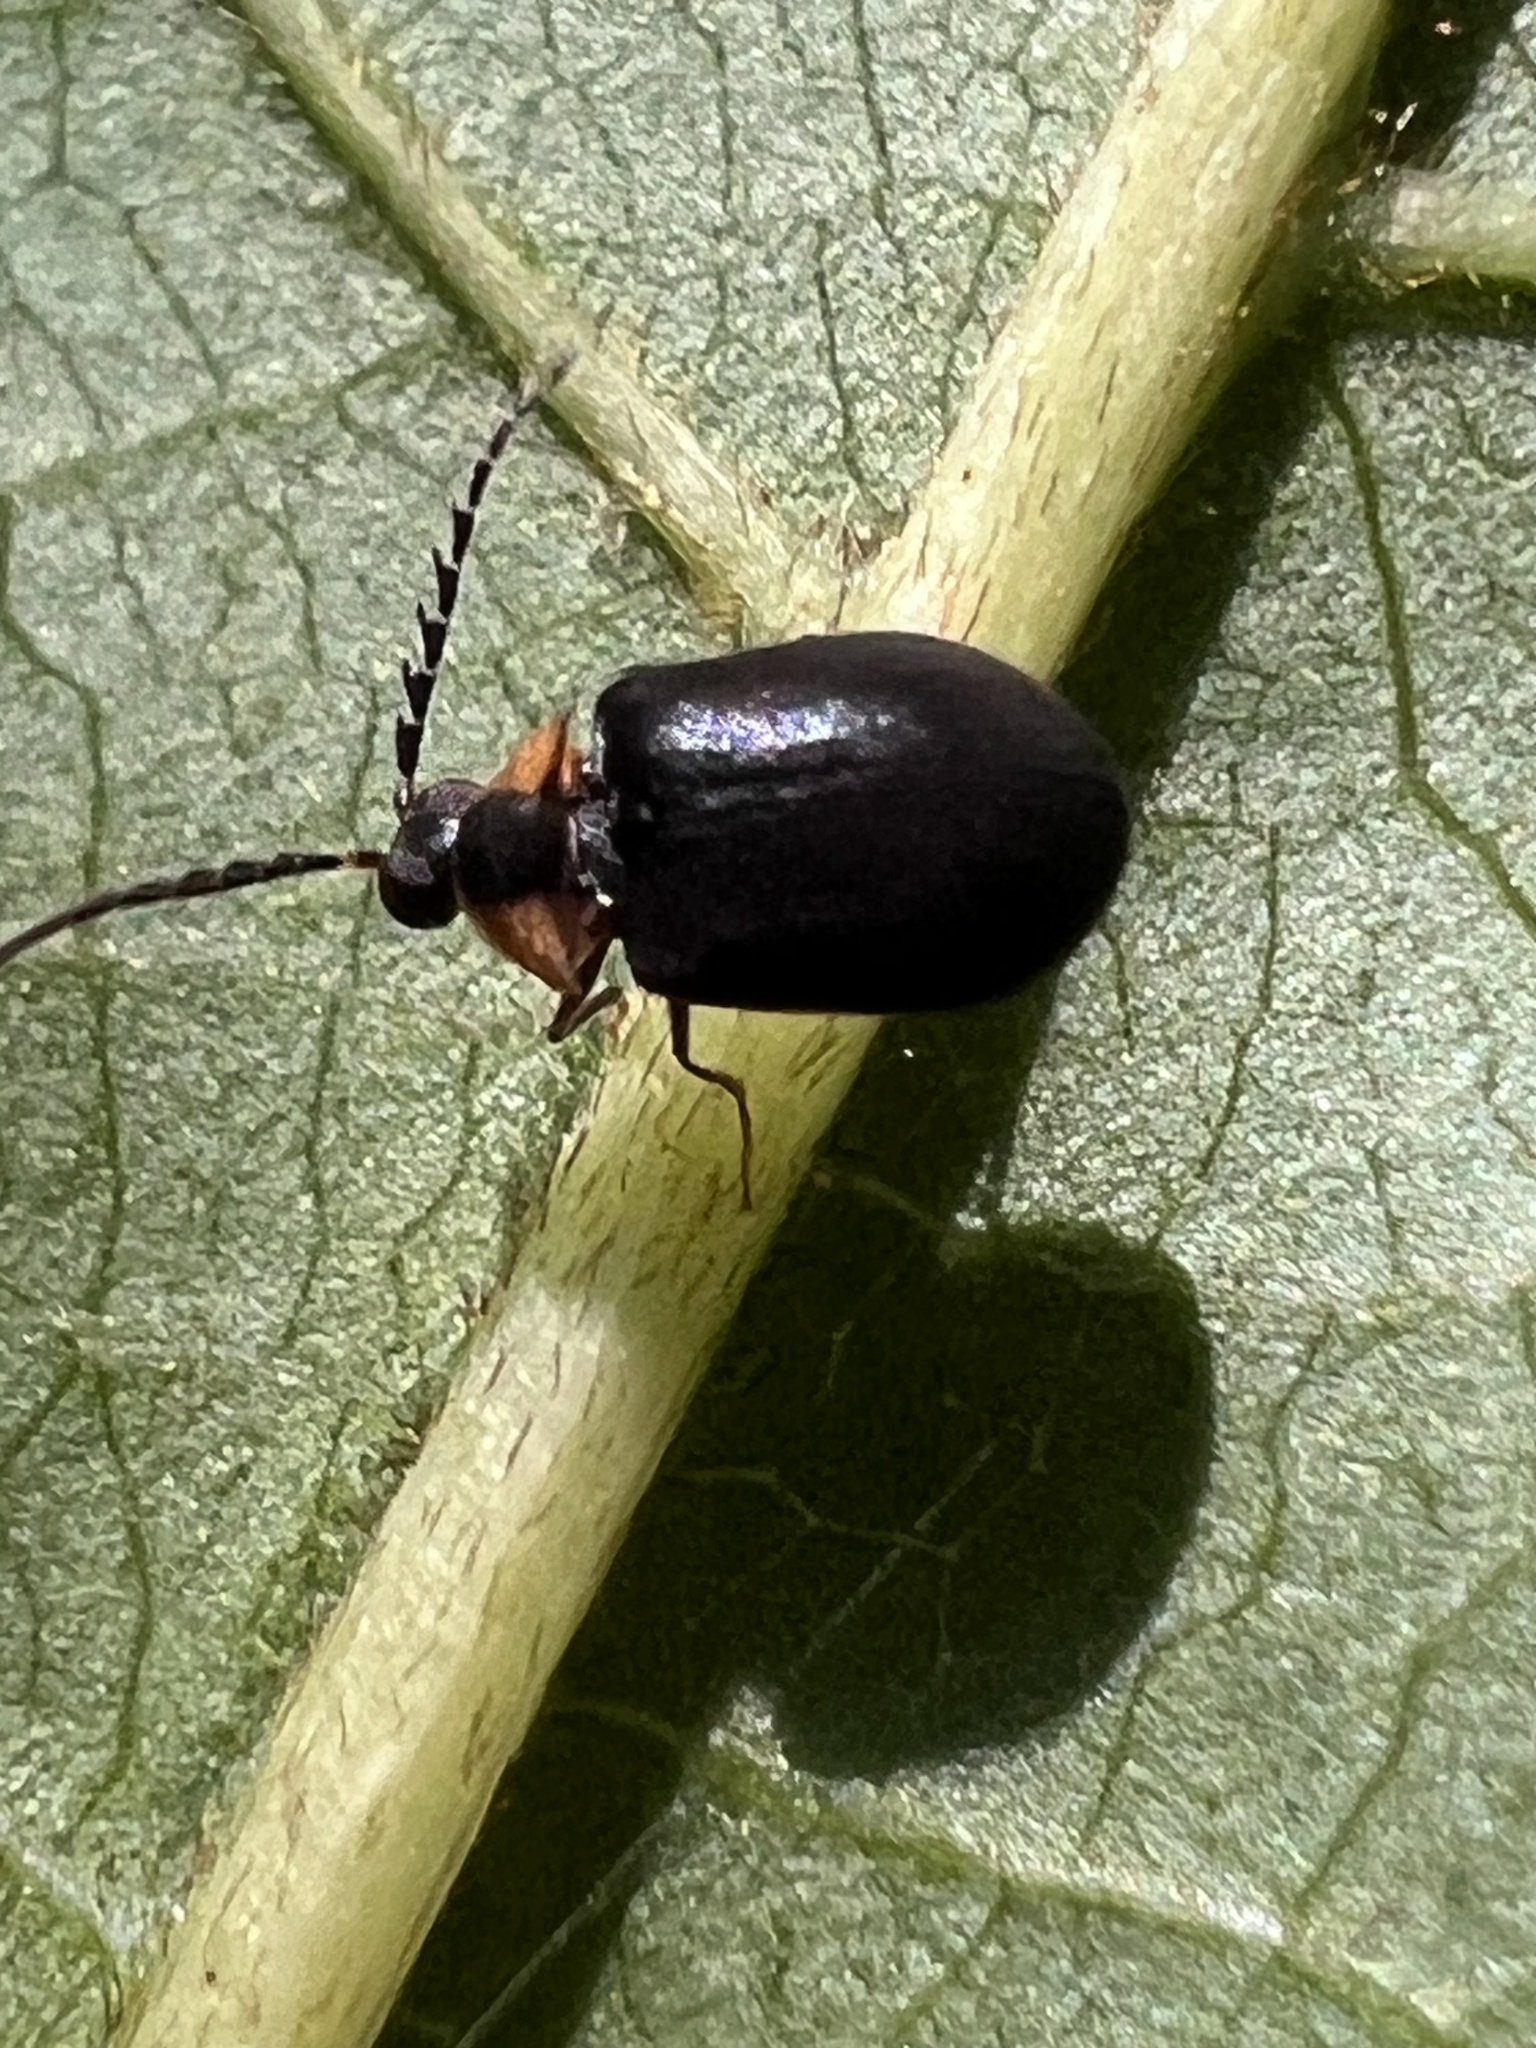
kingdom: Animalia
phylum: Arthropoda
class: Insecta
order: Coleoptera
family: Psephenidae
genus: Ectopria
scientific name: Ectopria nervosa
